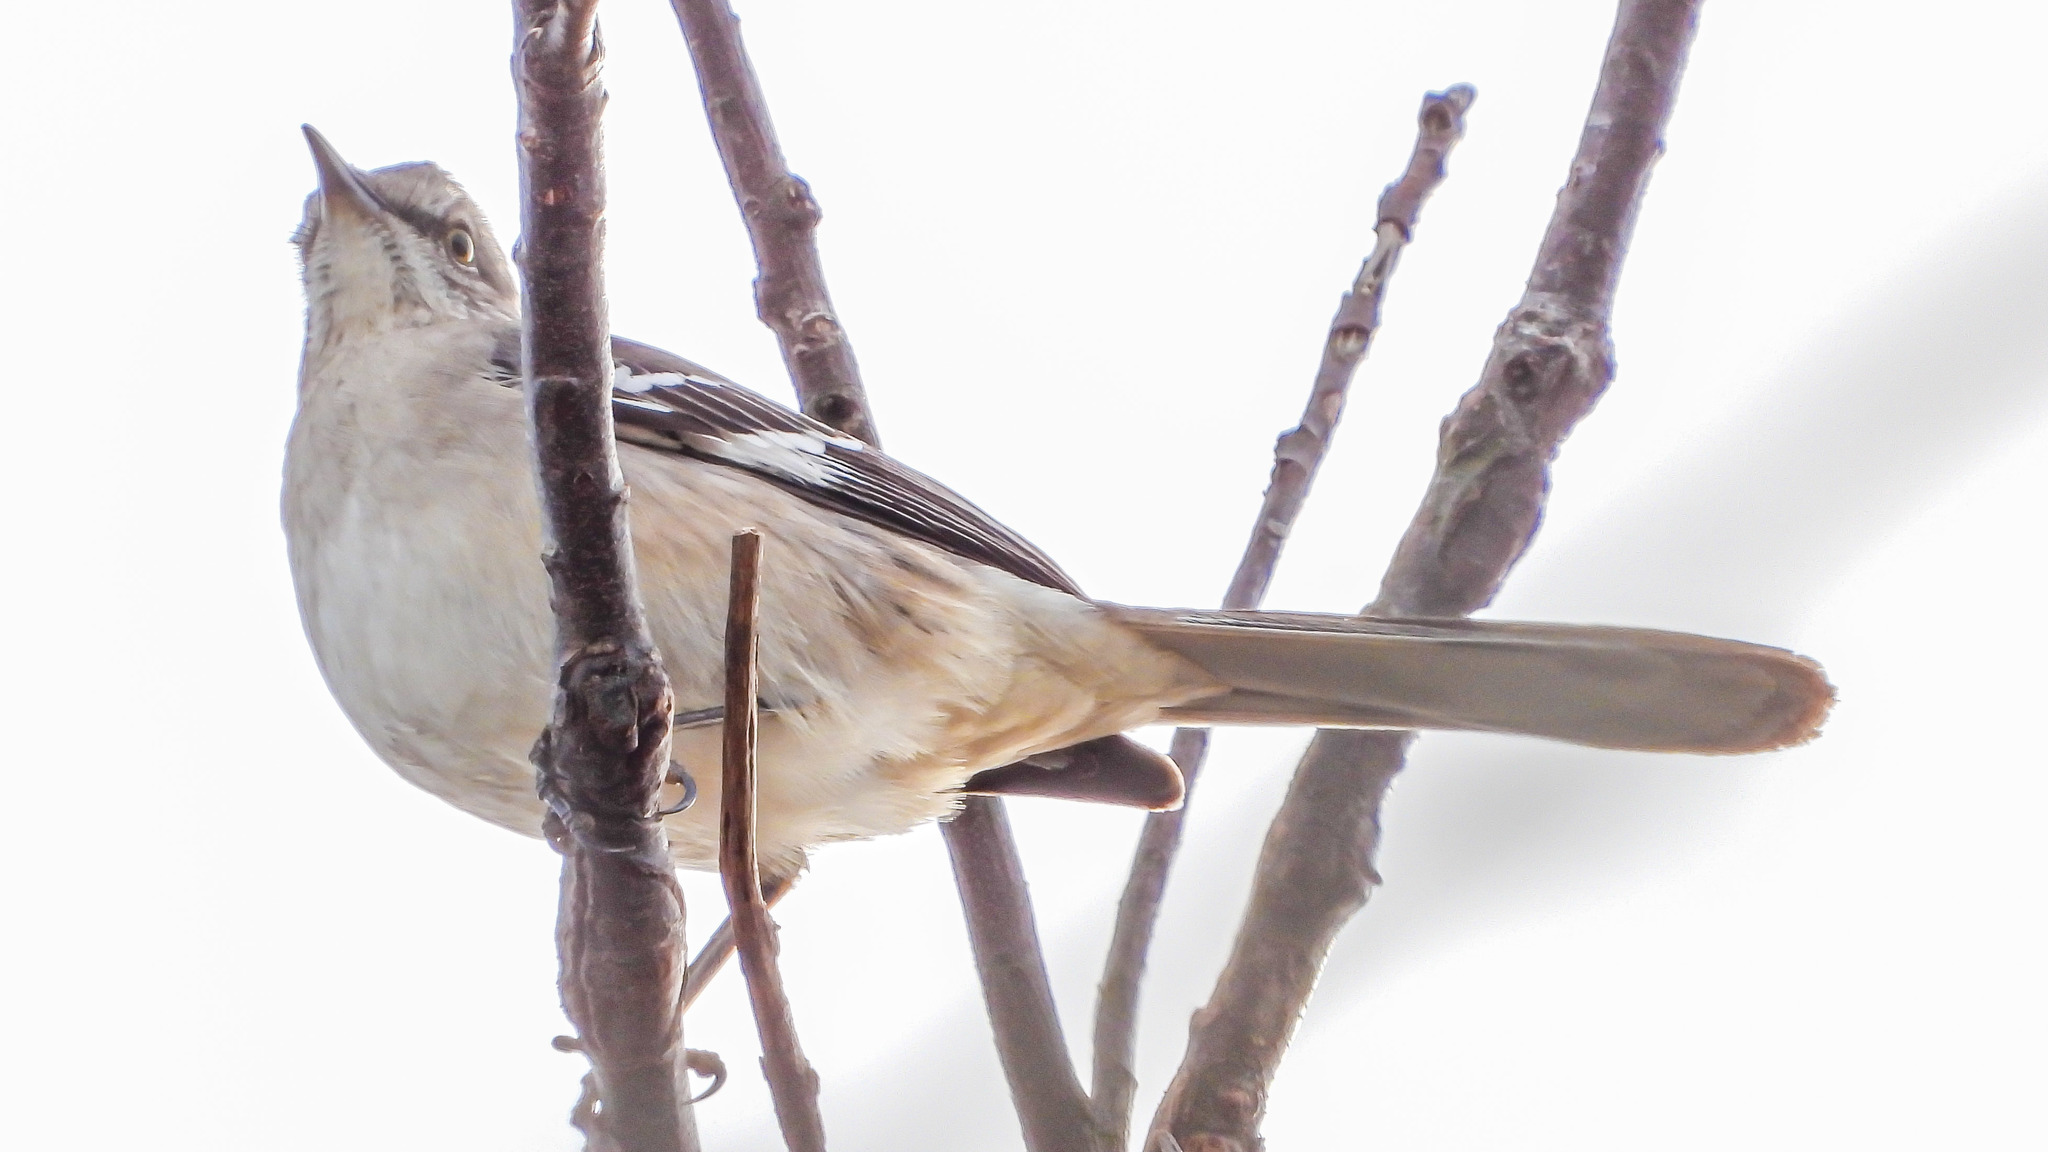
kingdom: Animalia
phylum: Chordata
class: Aves
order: Passeriformes
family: Mimidae
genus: Mimus
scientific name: Mimus polyglottos
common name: Northern mockingbird
